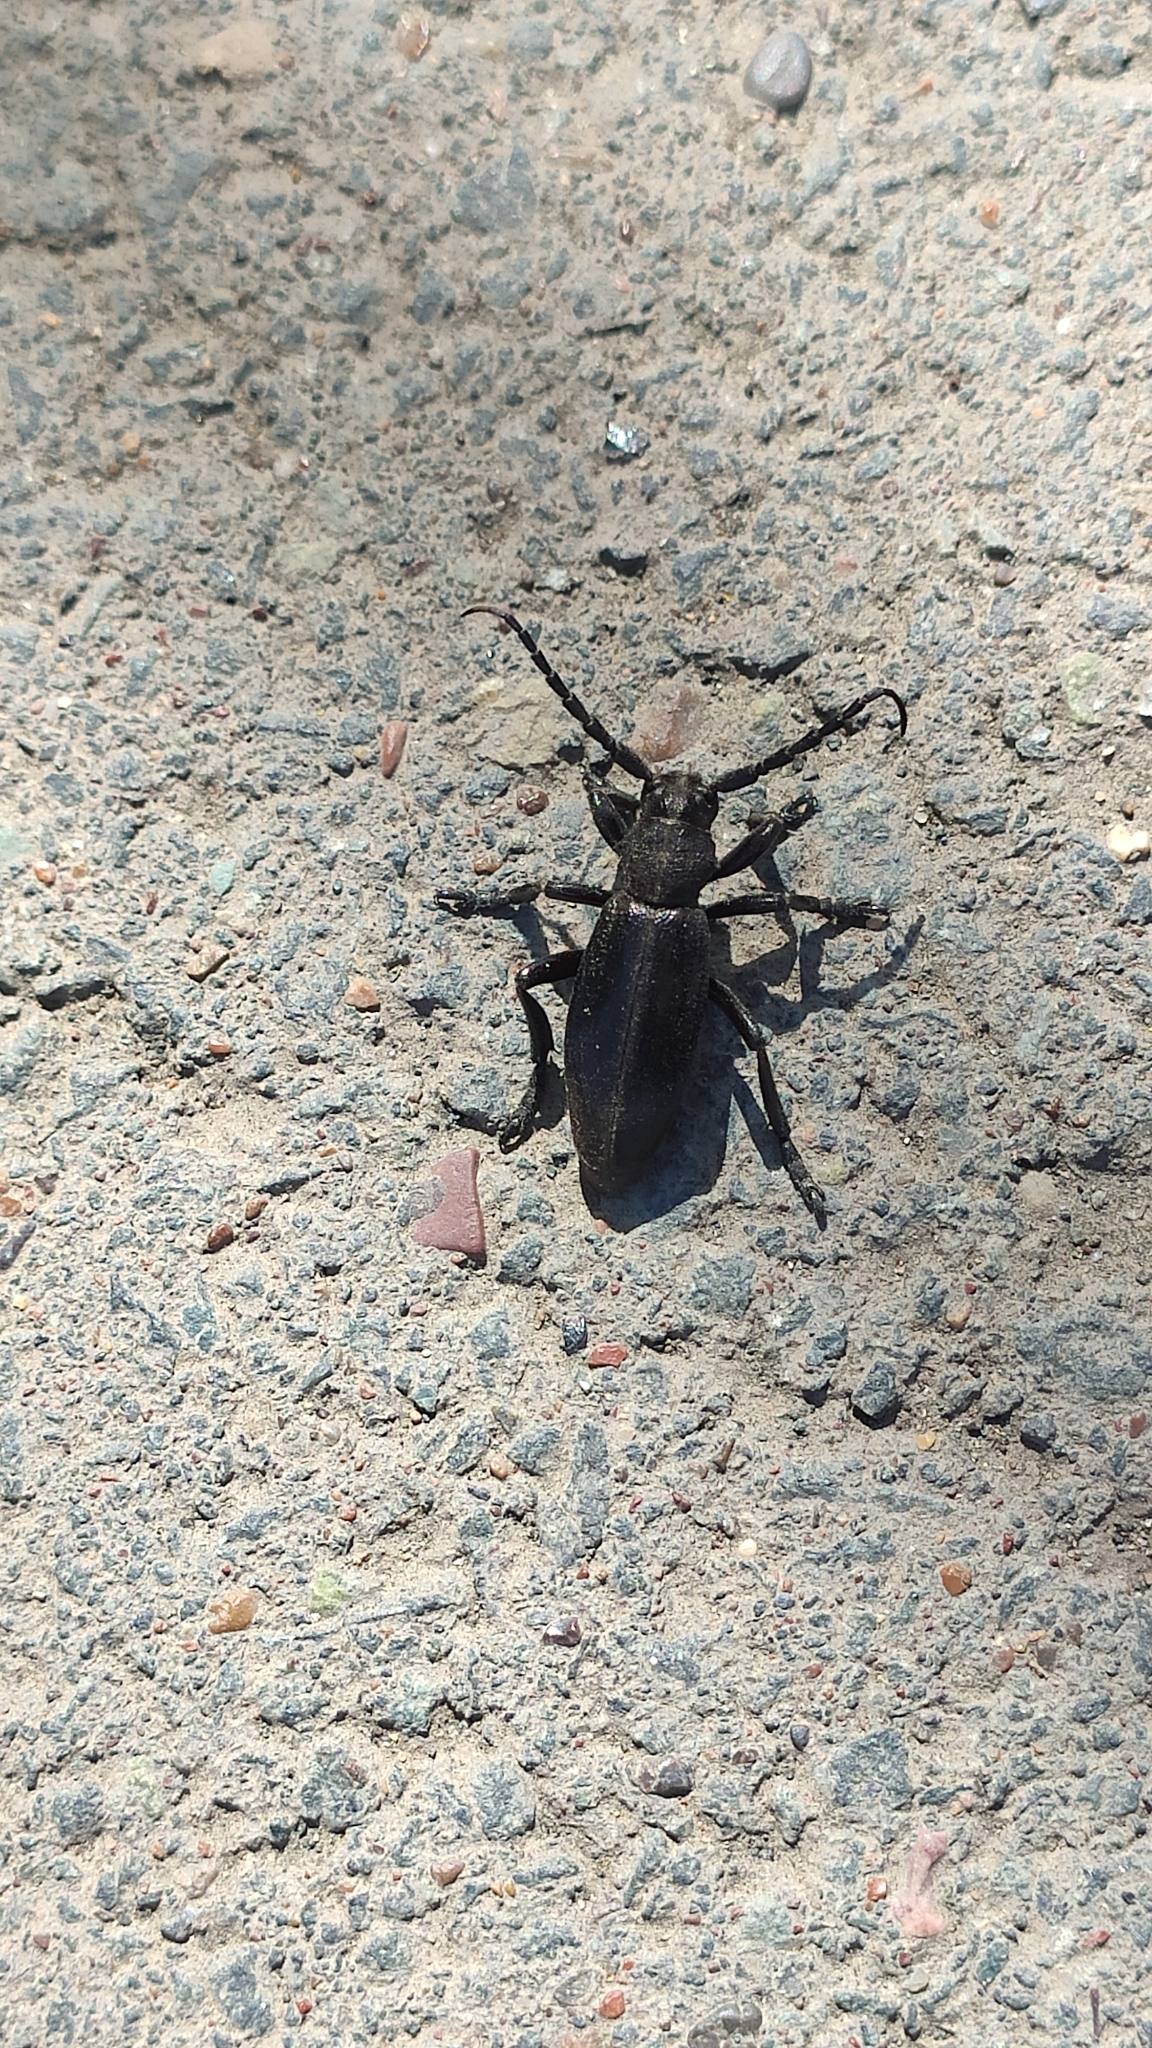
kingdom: Animalia
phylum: Arthropoda
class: Insecta
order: Coleoptera
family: Cerambycidae
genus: Dorcadion
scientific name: Dorcadion carinatum
